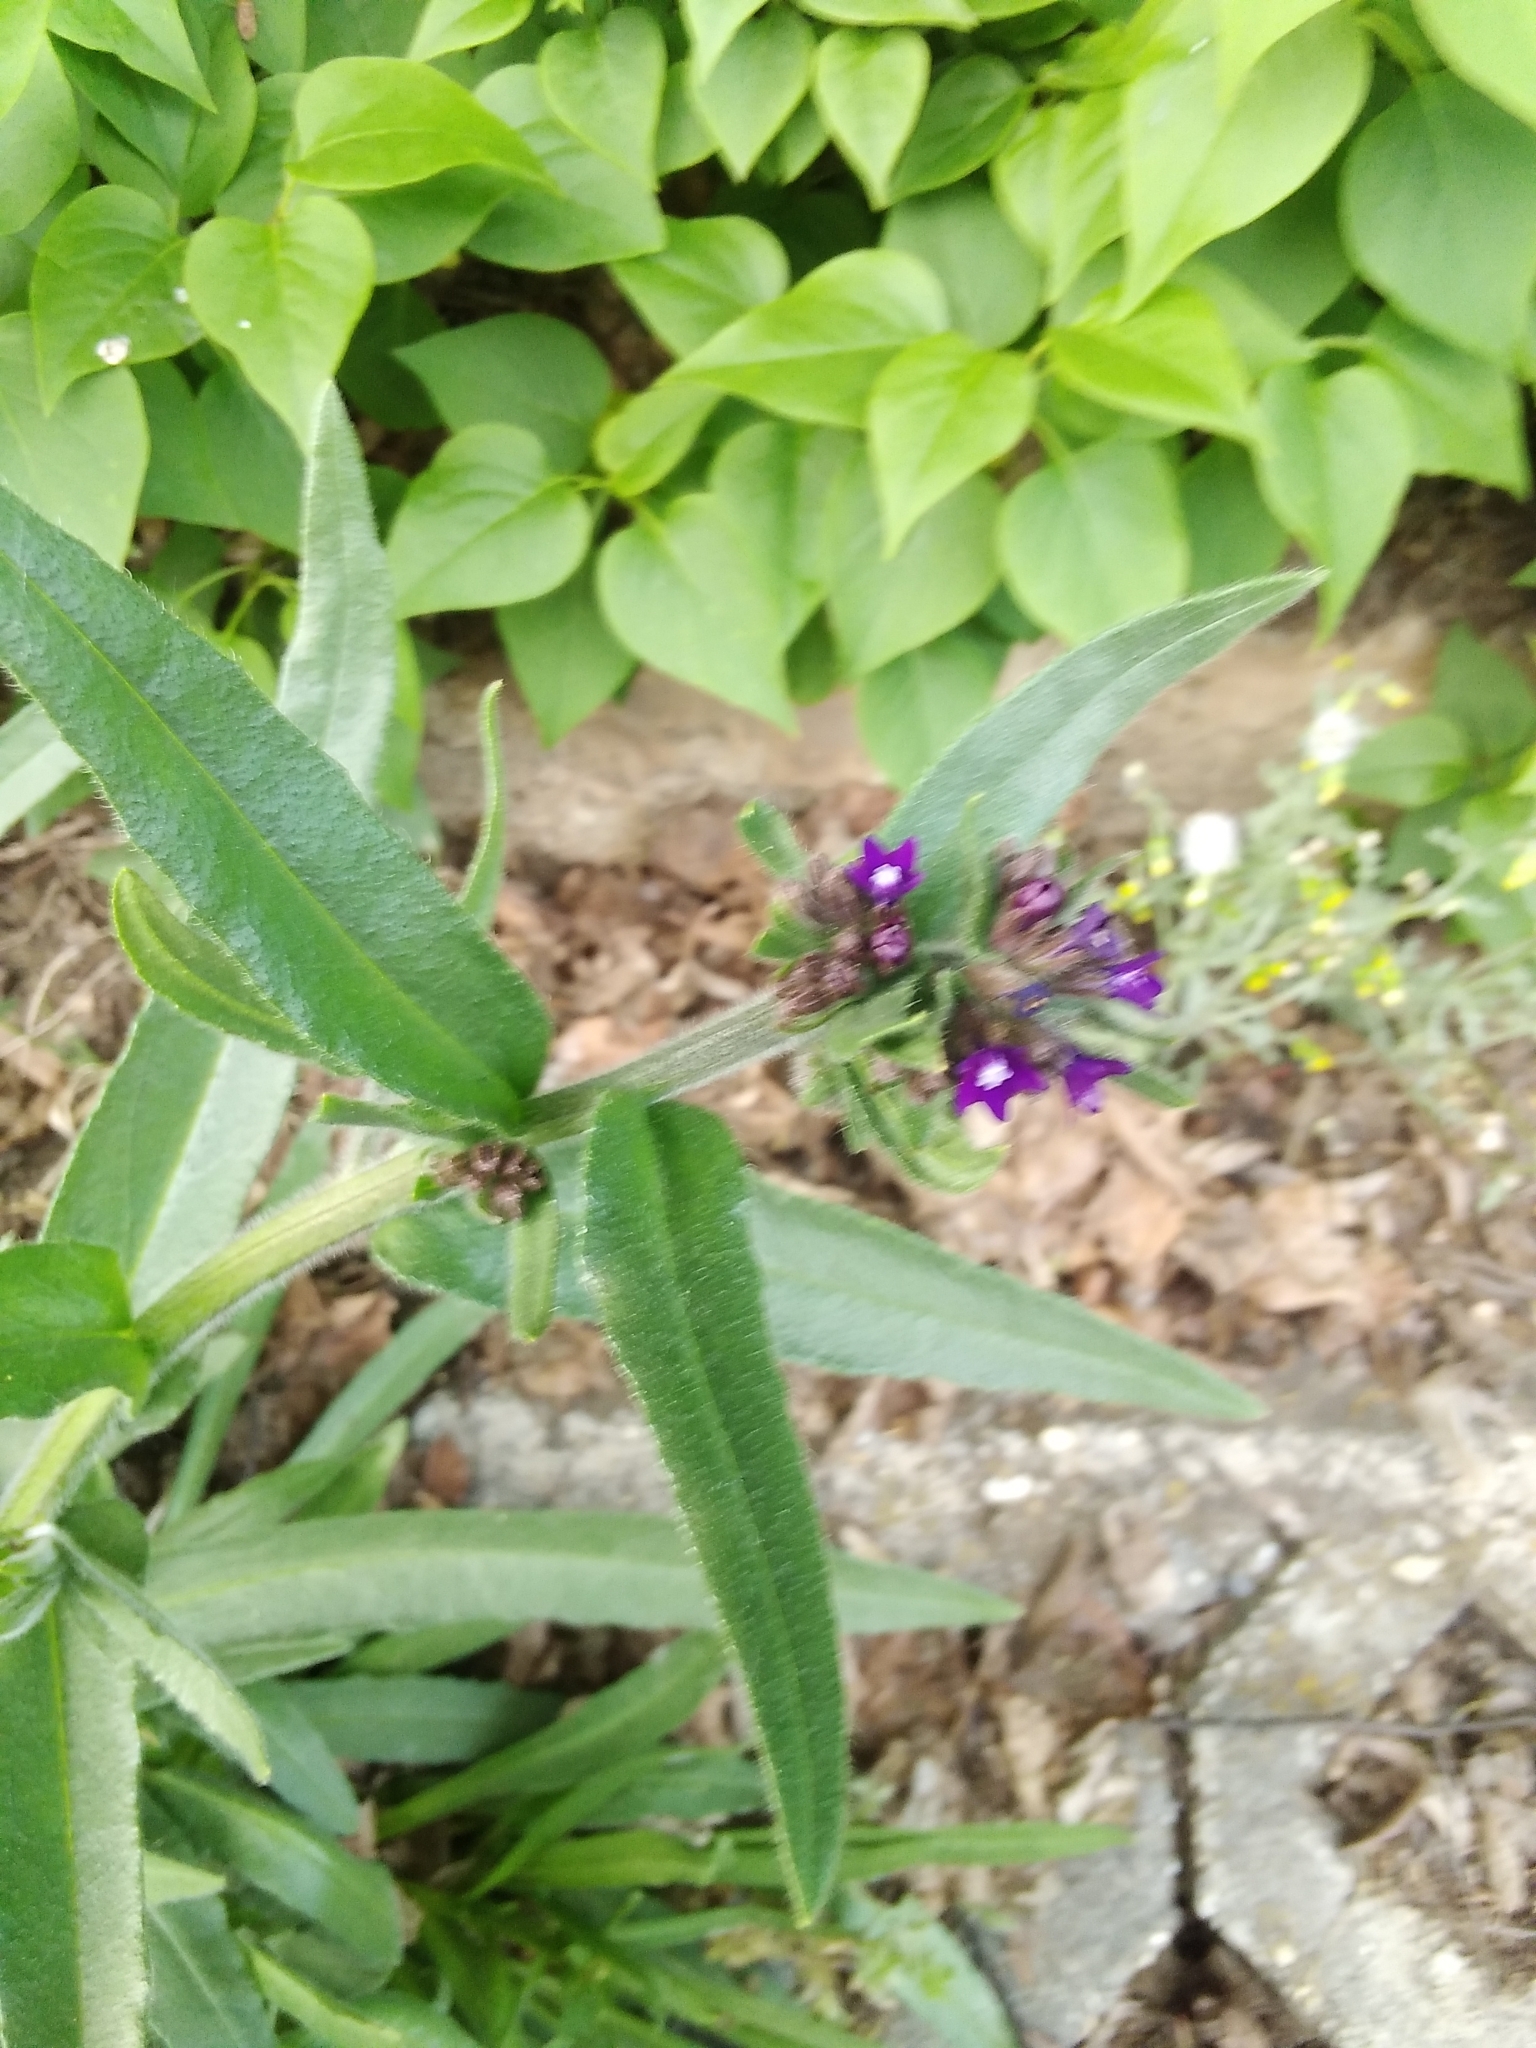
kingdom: Plantae
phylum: Tracheophyta
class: Magnoliopsida
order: Boraginales
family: Boraginaceae
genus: Anchusa
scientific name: Anchusa officinalis
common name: Alkanet
